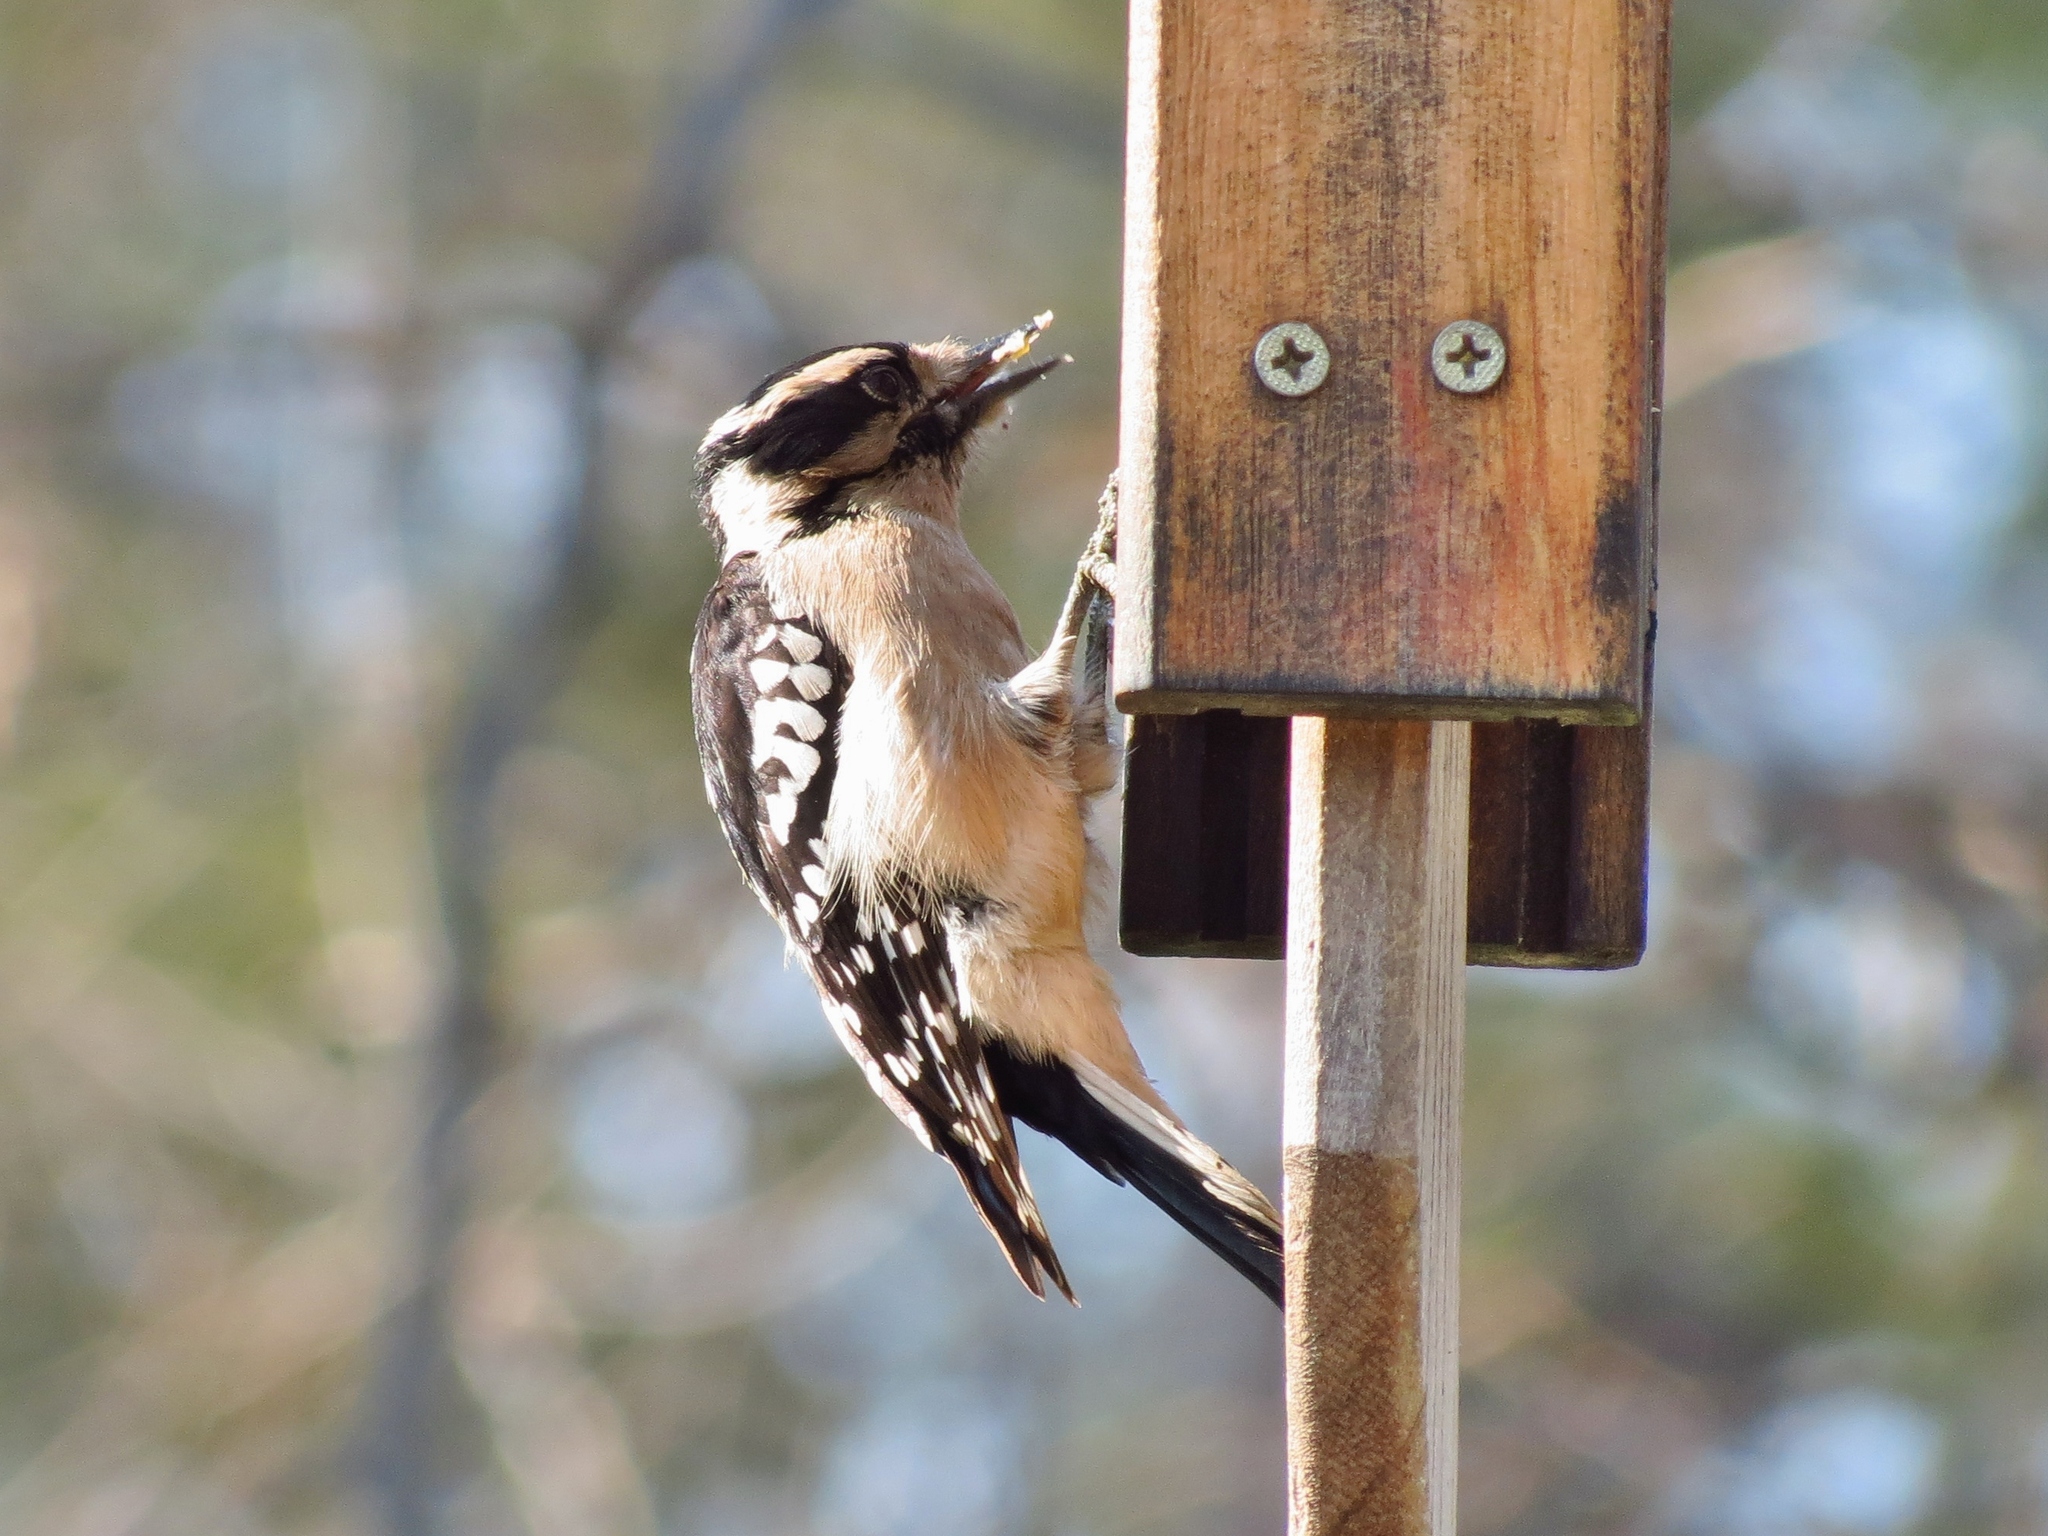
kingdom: Animalia
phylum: Chordata
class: Aves
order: Piciformes
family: Picidae
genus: Dryobates
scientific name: Dryobates pubescens
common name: Downy woodpecker
